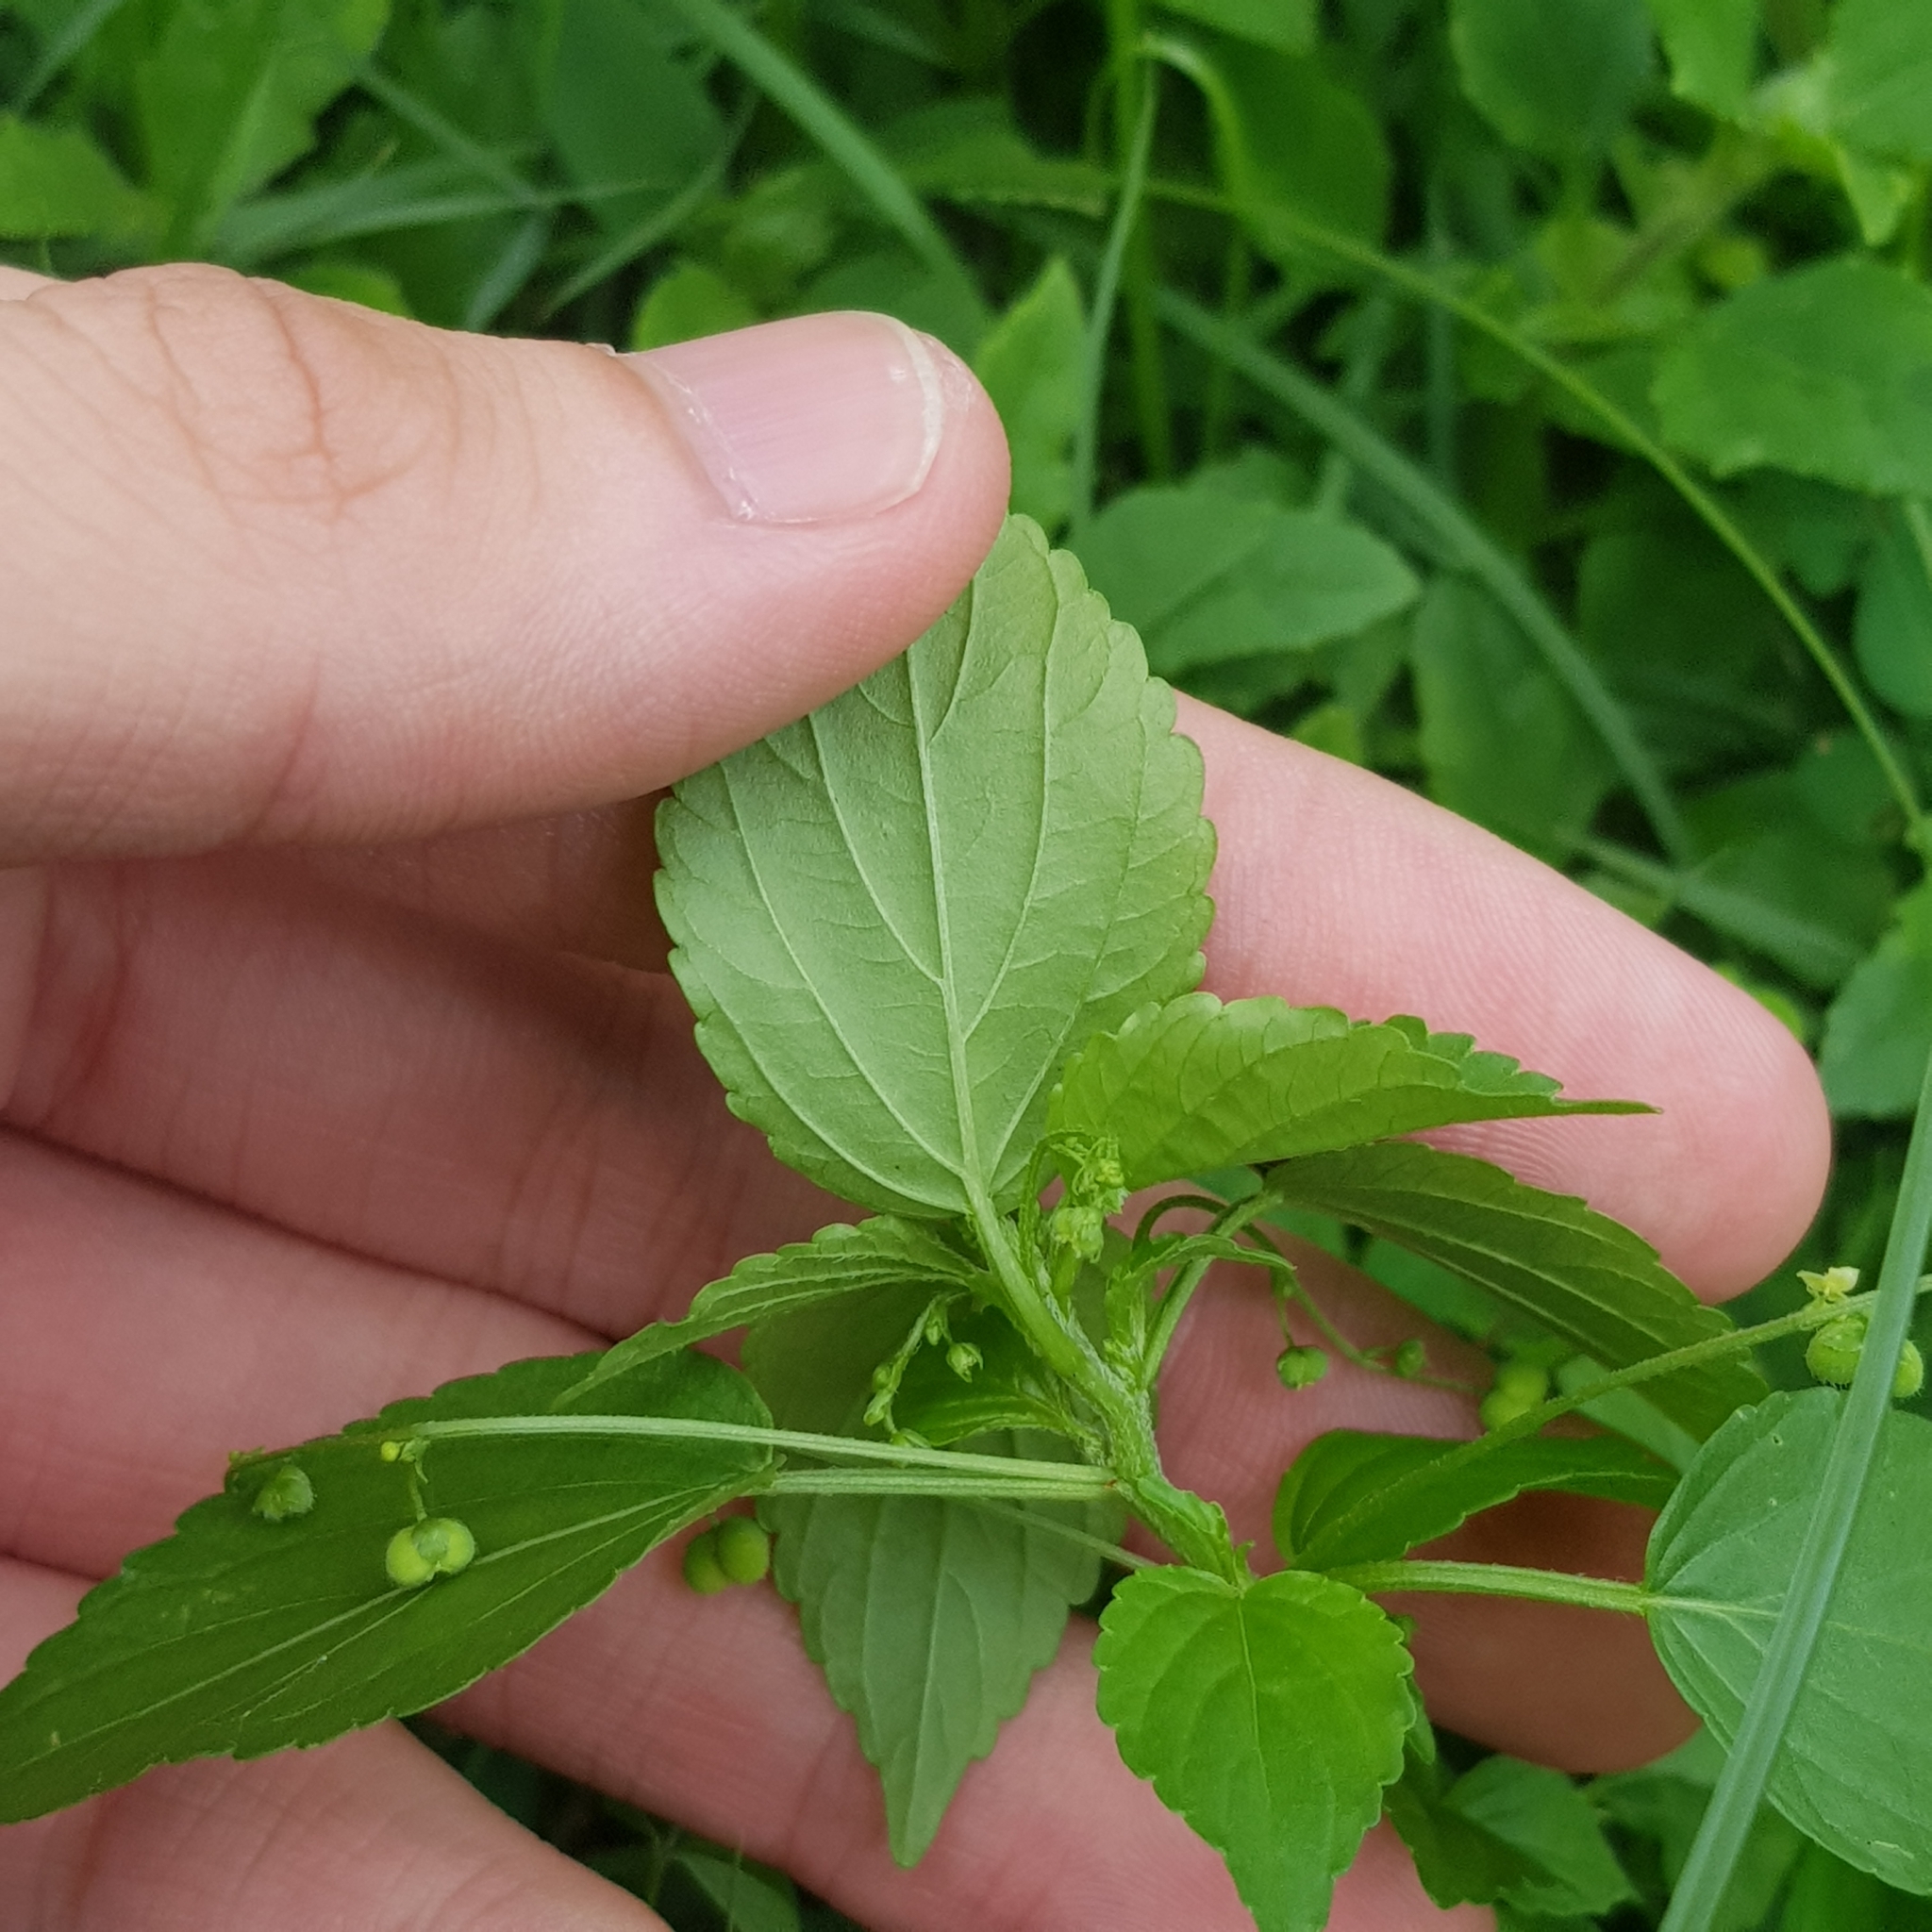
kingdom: Plantae
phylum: Tracheophyta
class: Magnoliopsida
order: Malpighiales
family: Euphorbiaceae
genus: Micrococca
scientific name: Micrococca mercurialis
